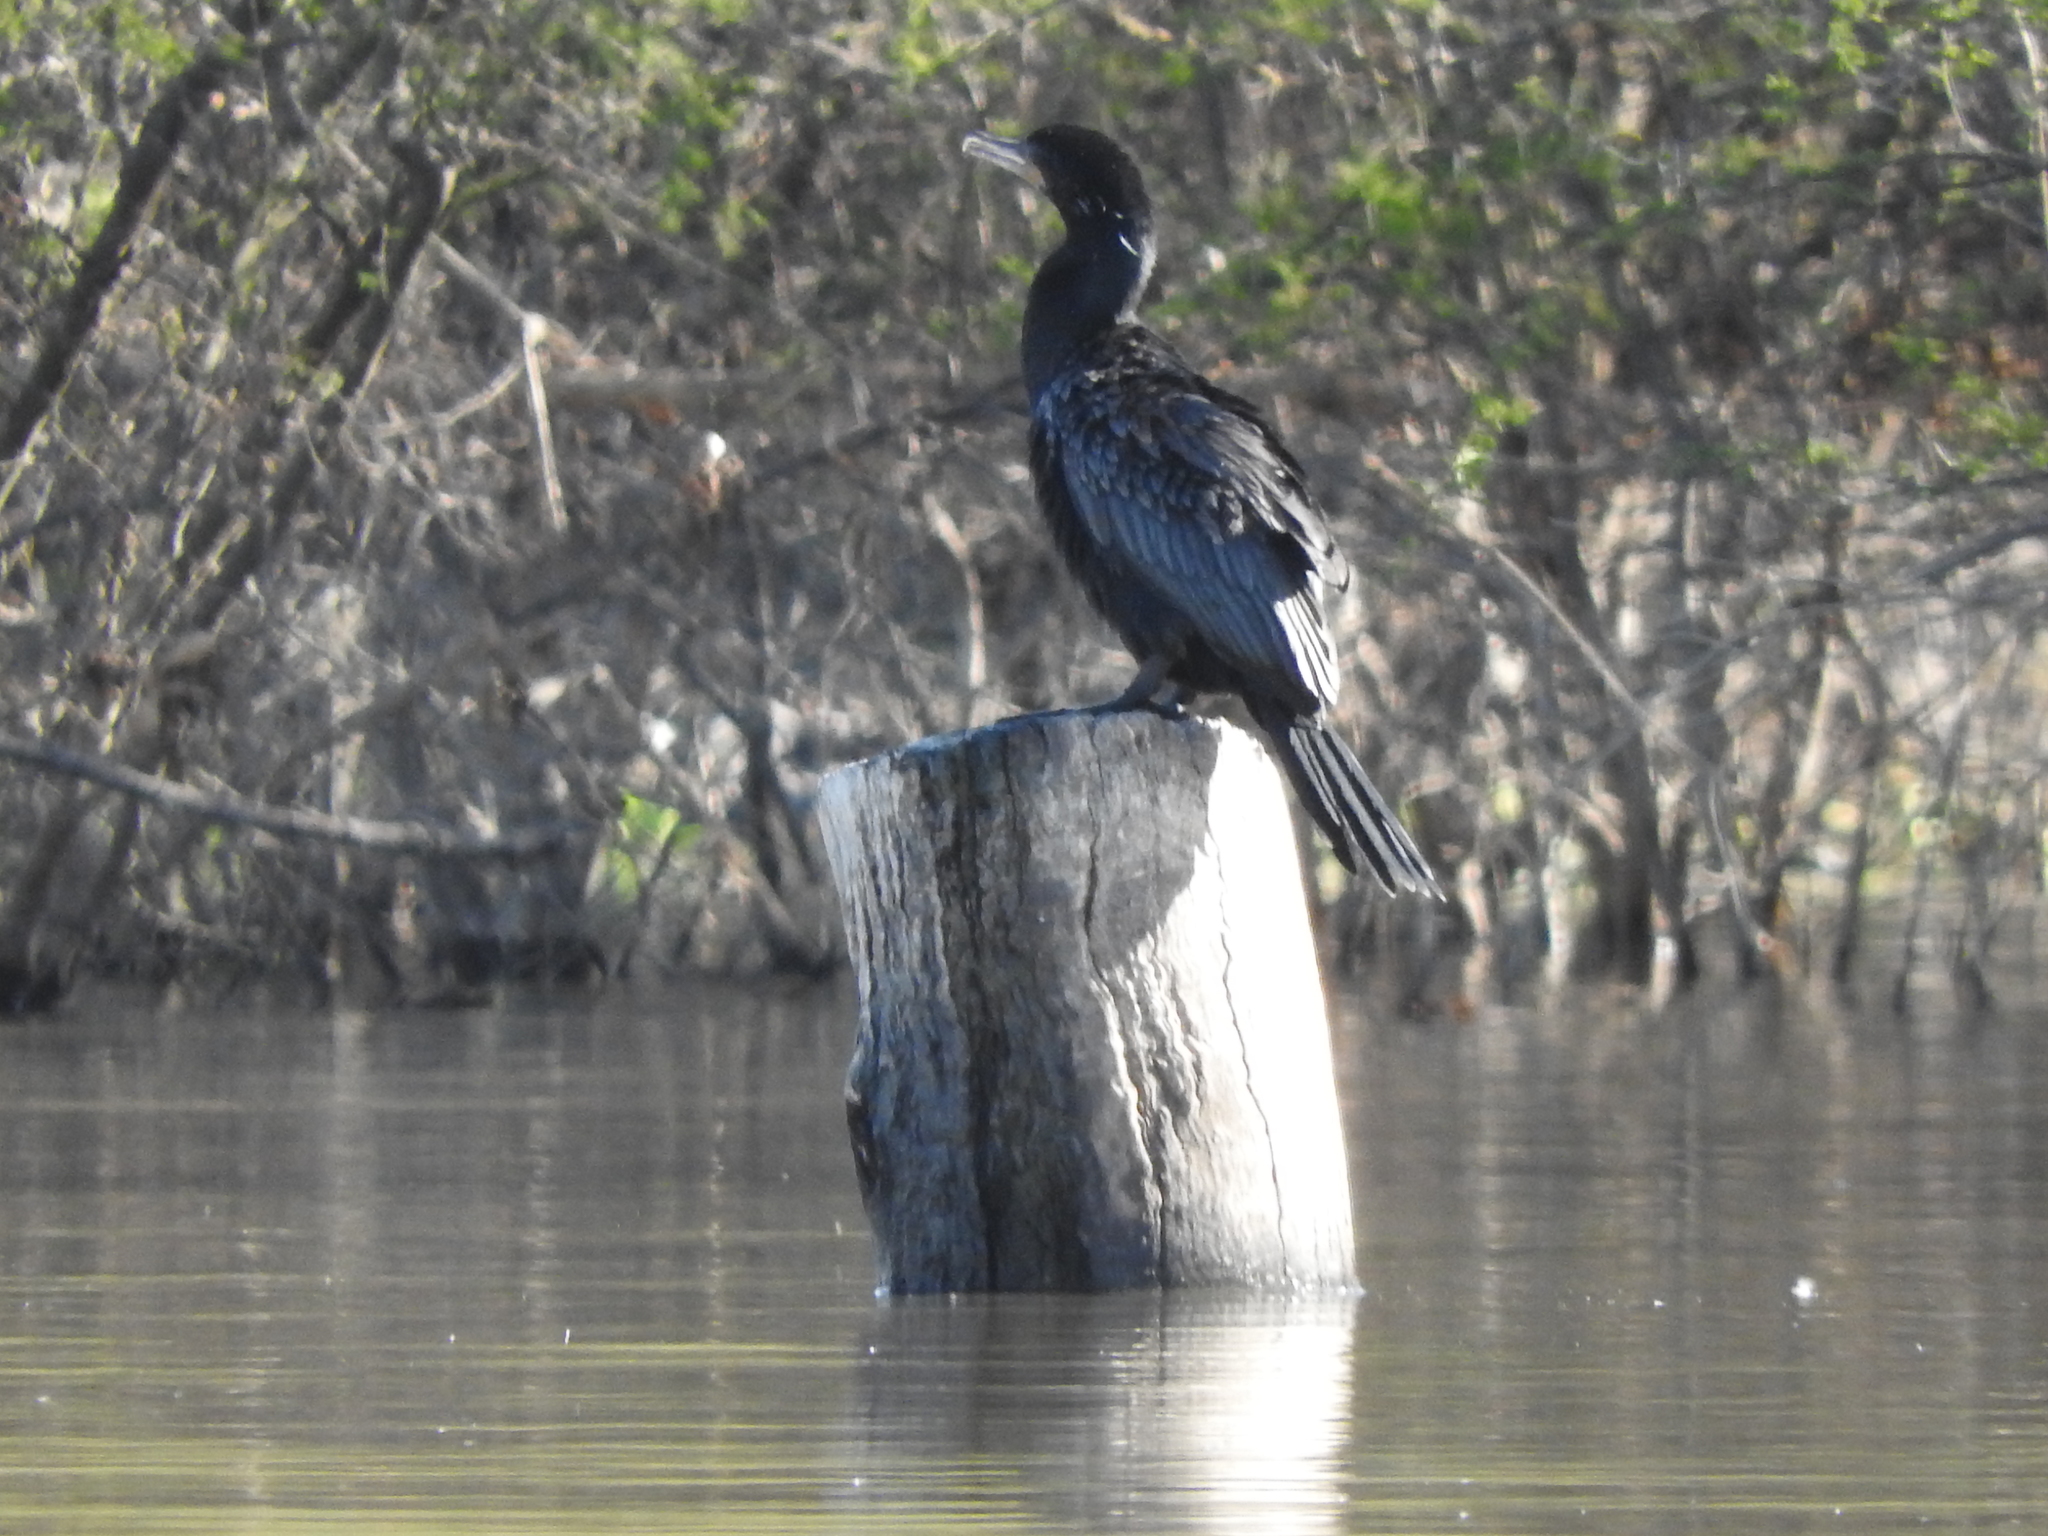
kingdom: Animalia
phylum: Chordata
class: Aves
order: Suliformes
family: Phalacrocoracidae
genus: Phalacrocorax
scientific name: Phalacrocorax brasilianus
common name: Neotropic cormorant
